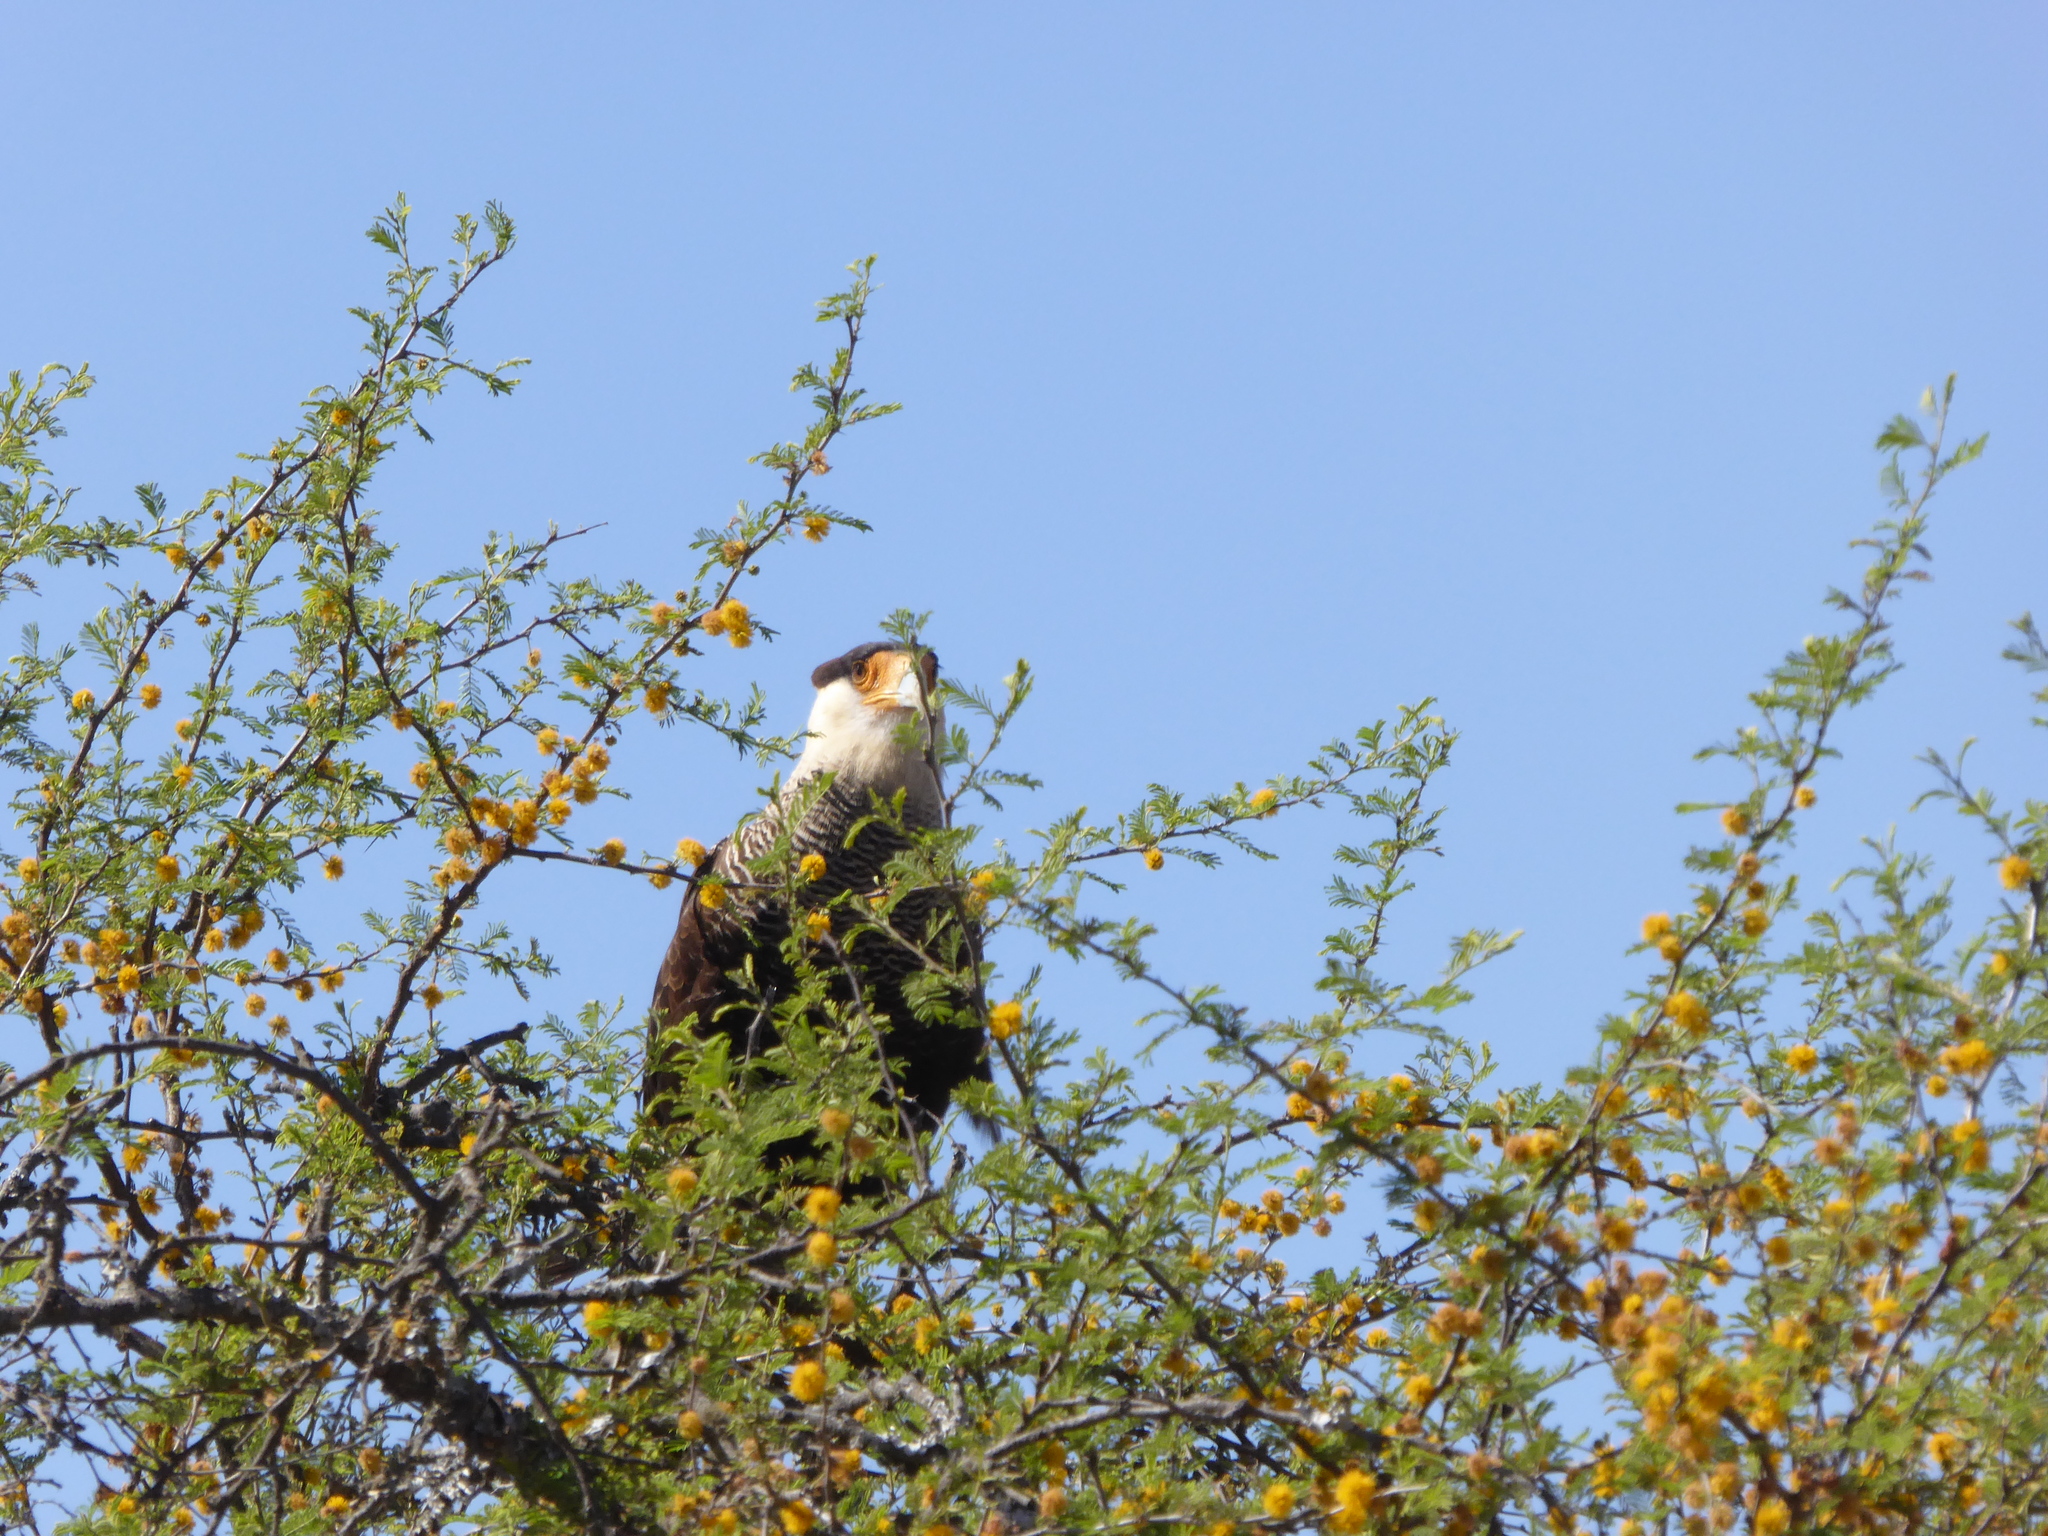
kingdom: Animalia
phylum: Chordata
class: Aves
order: Falconiformes
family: Falconidae
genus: Caracara
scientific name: Caracara plancus
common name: Southern caracara
